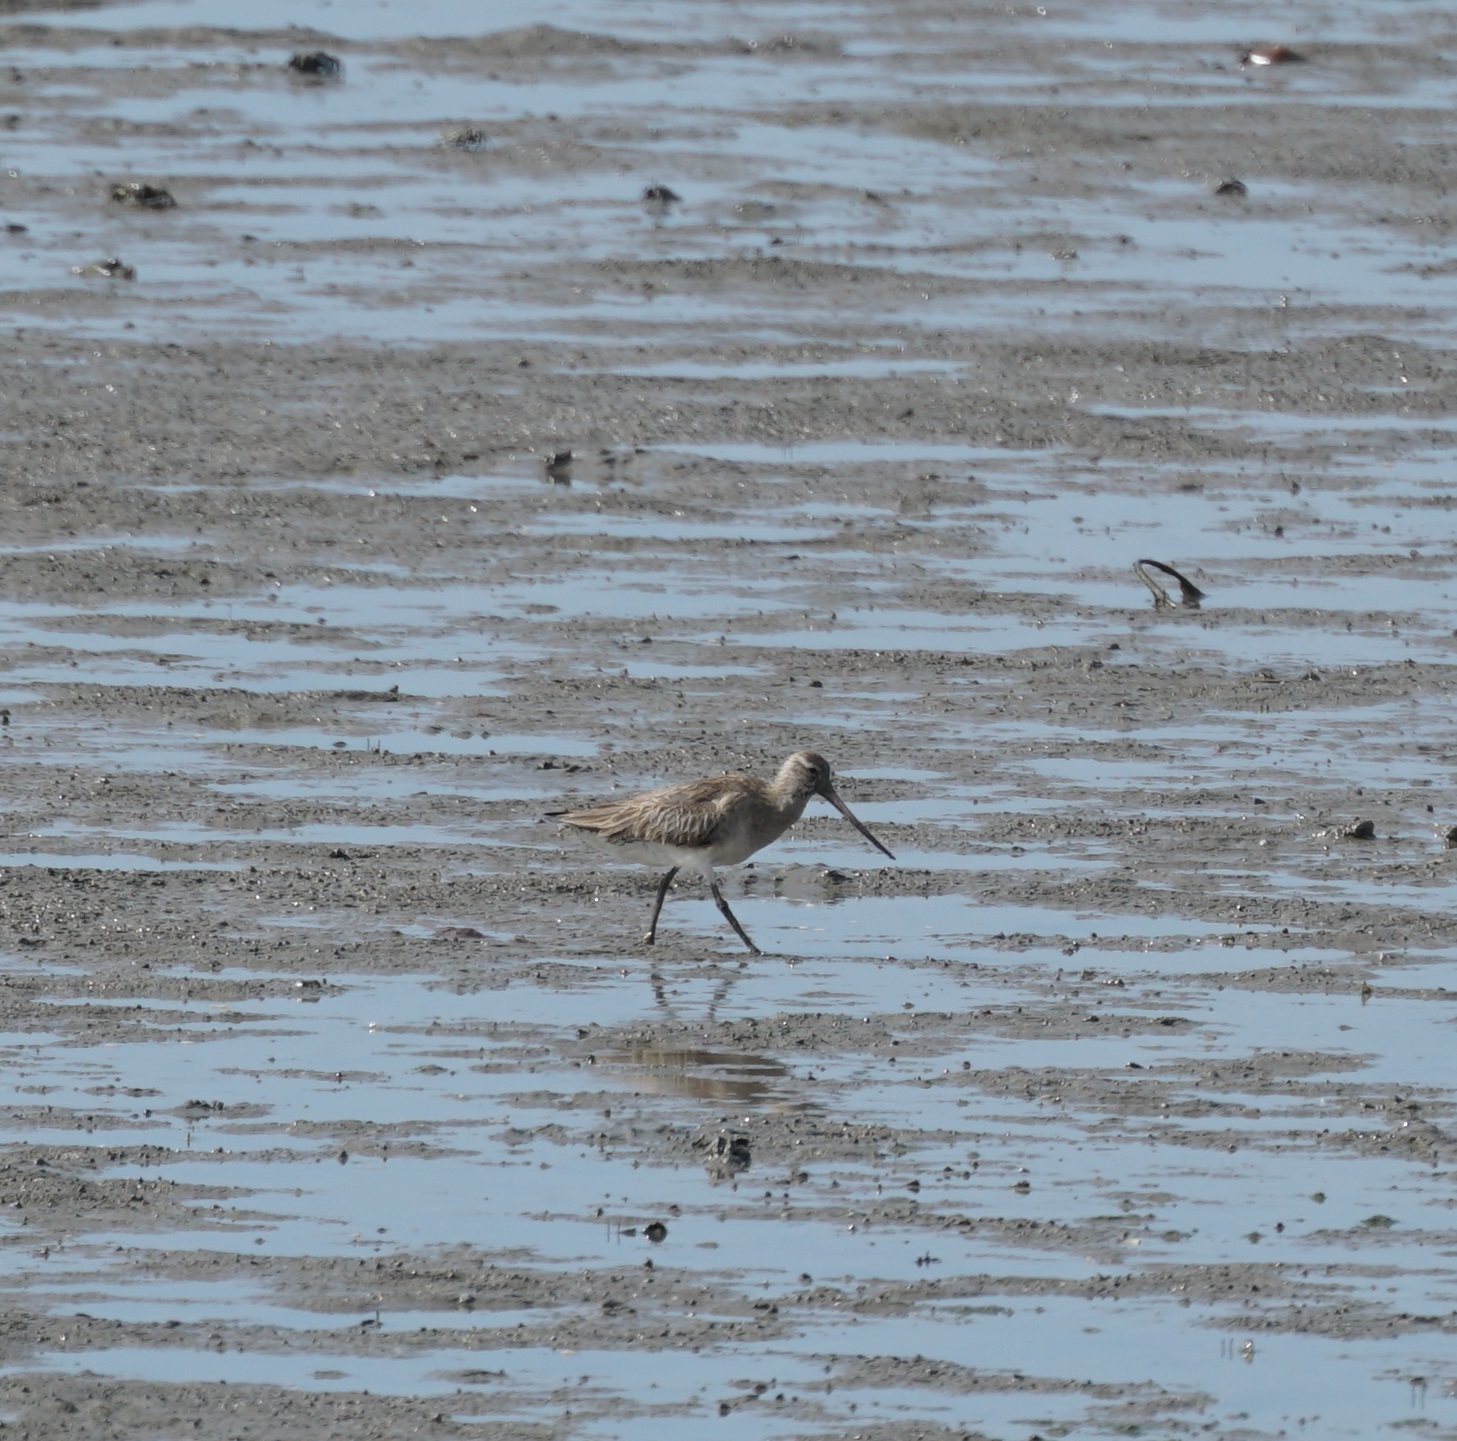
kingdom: Animalia
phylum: Chordata
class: Aves
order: Charadriiformes
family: Scolopacidae
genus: Limosa
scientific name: Limosa lapponica
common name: Bar-tailed godwit
